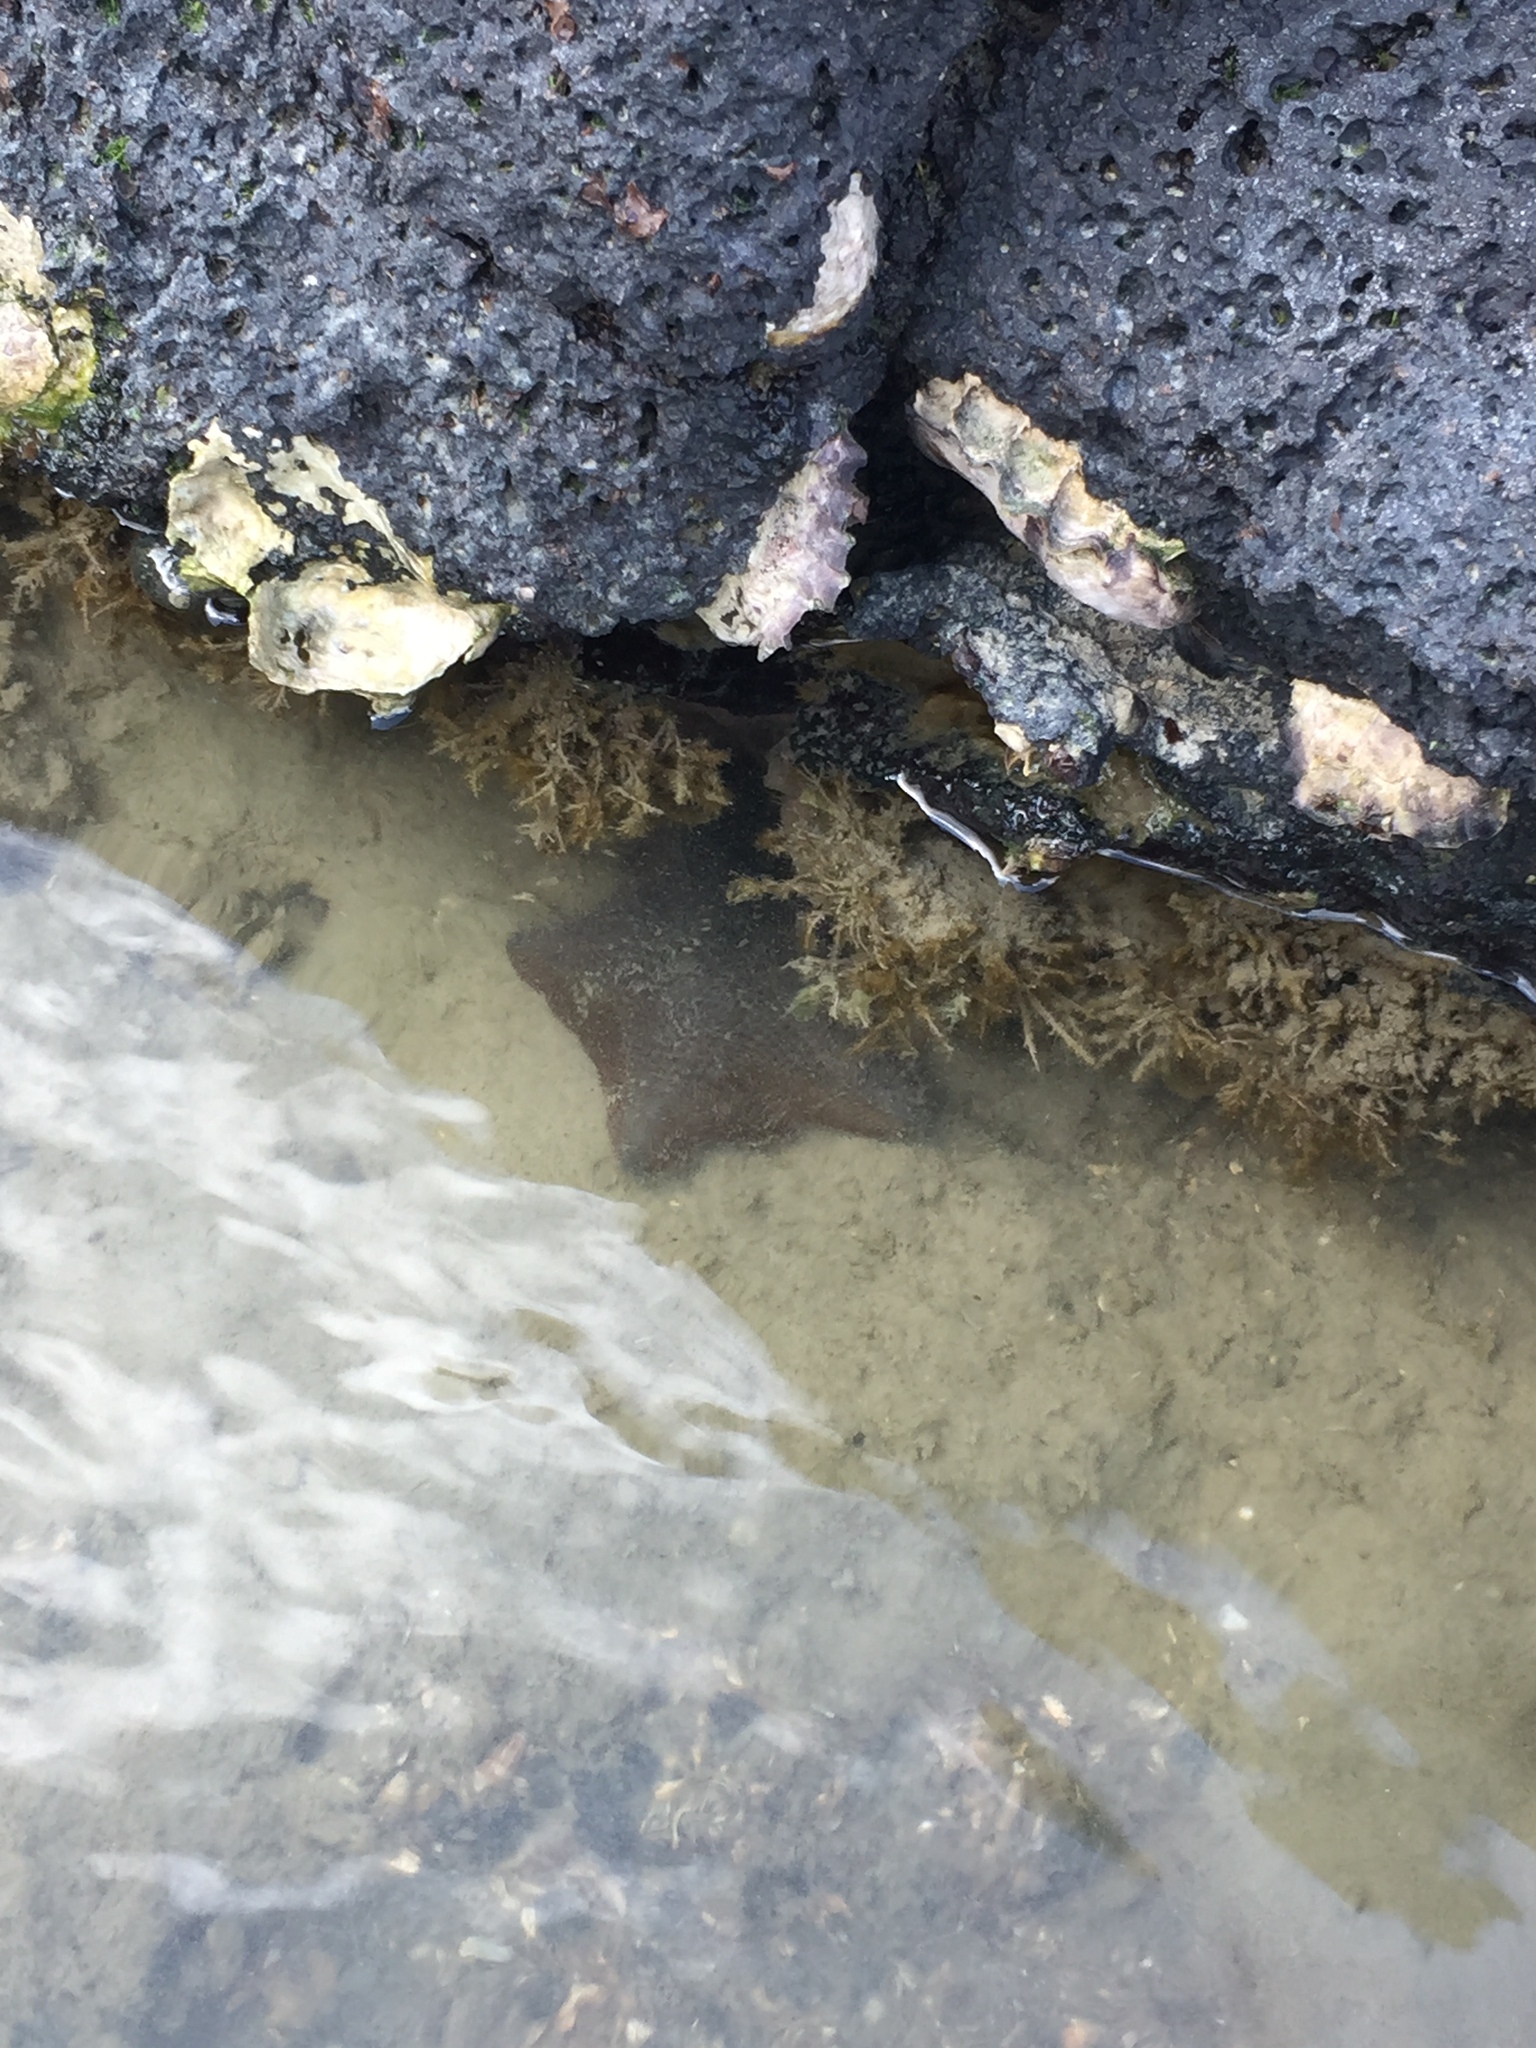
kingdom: Animalia
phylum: Echinodermata
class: Asteroidea
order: Valvatida
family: Asterinidae
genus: Patiriella
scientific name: Patiriella regularis
